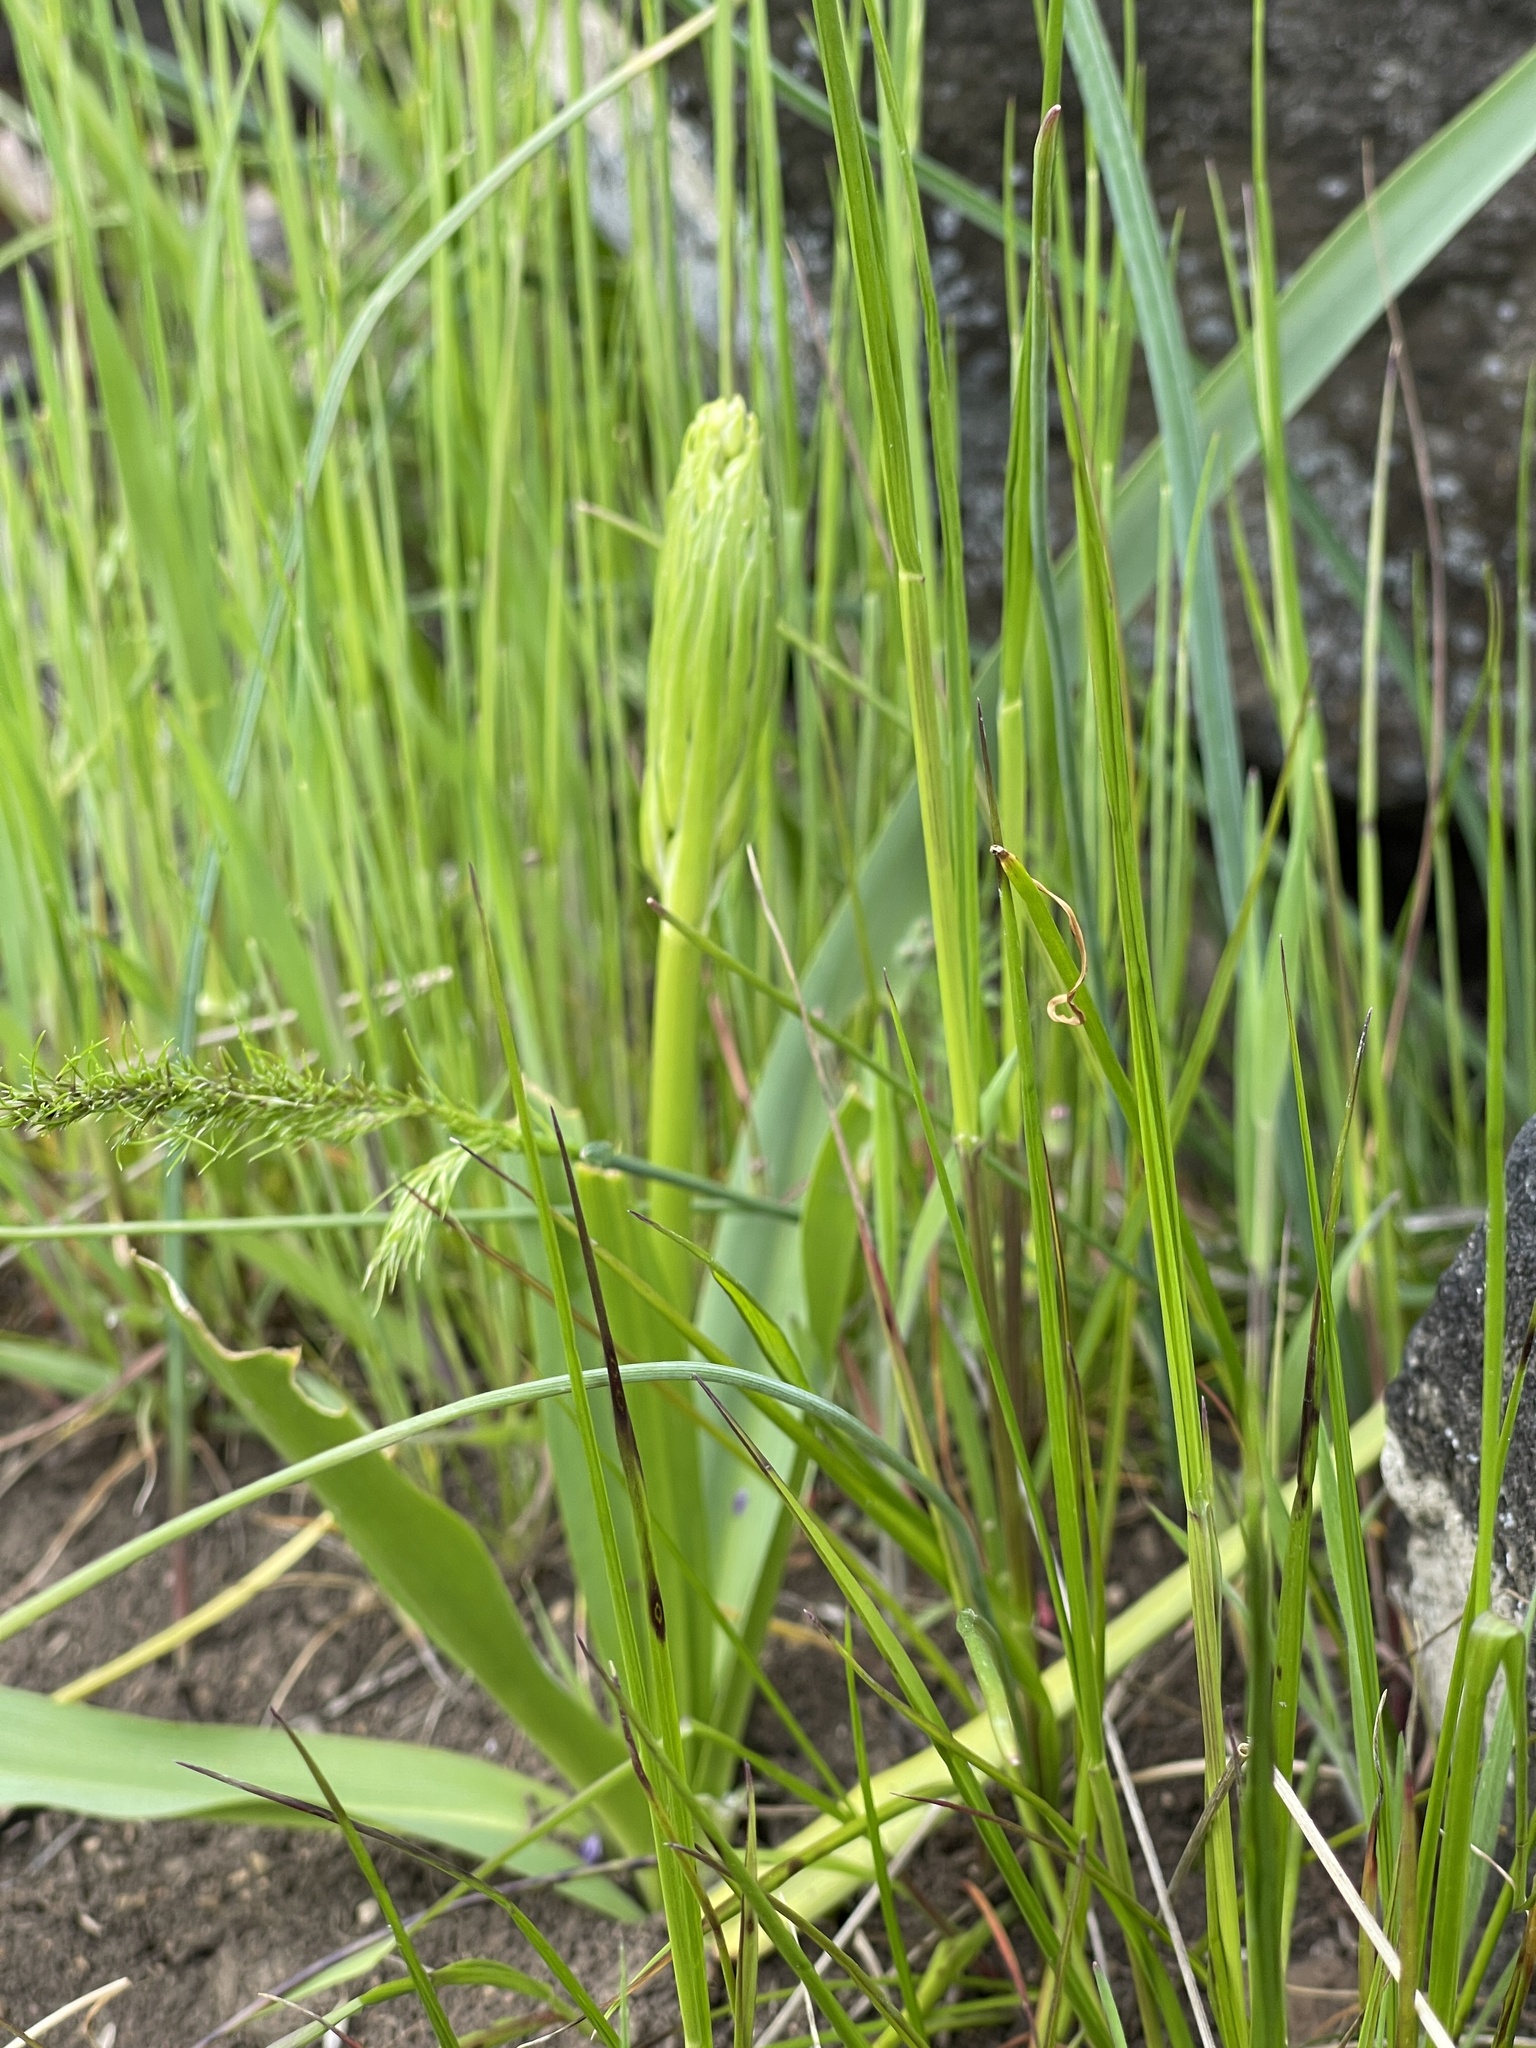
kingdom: Plantae
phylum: Tracheophyta
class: Liliopsida
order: Asparagales
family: Asparagaceae
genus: Camassia
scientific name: Camassia
